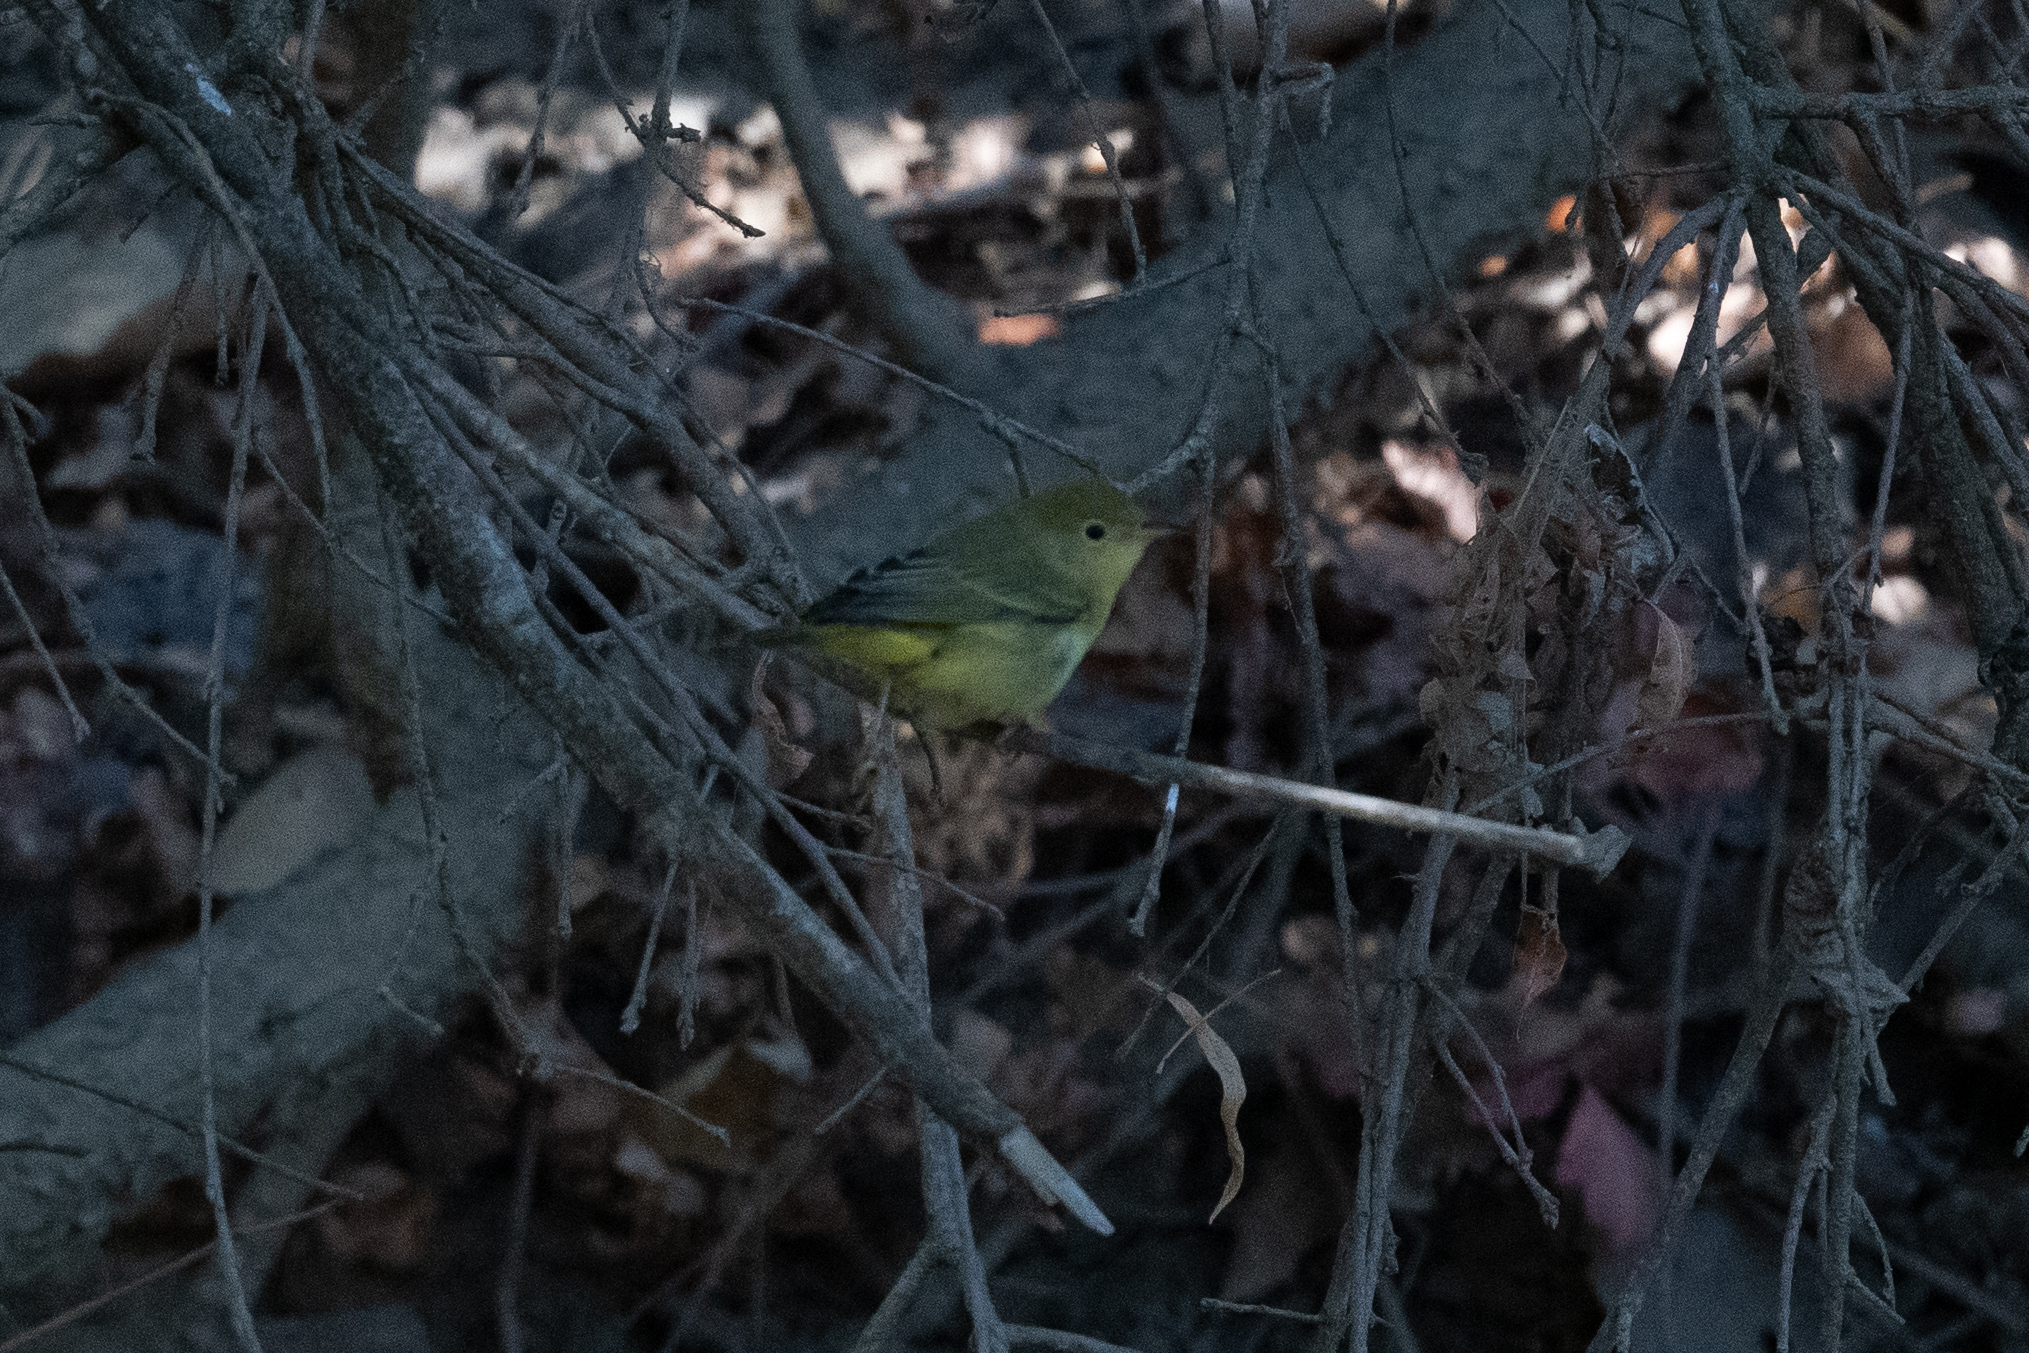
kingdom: Animalia
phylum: Chordata
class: Aves
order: Passeriformes
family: Parulidae
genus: Setophaga
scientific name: Setophaga petechia
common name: Yellow warbler
